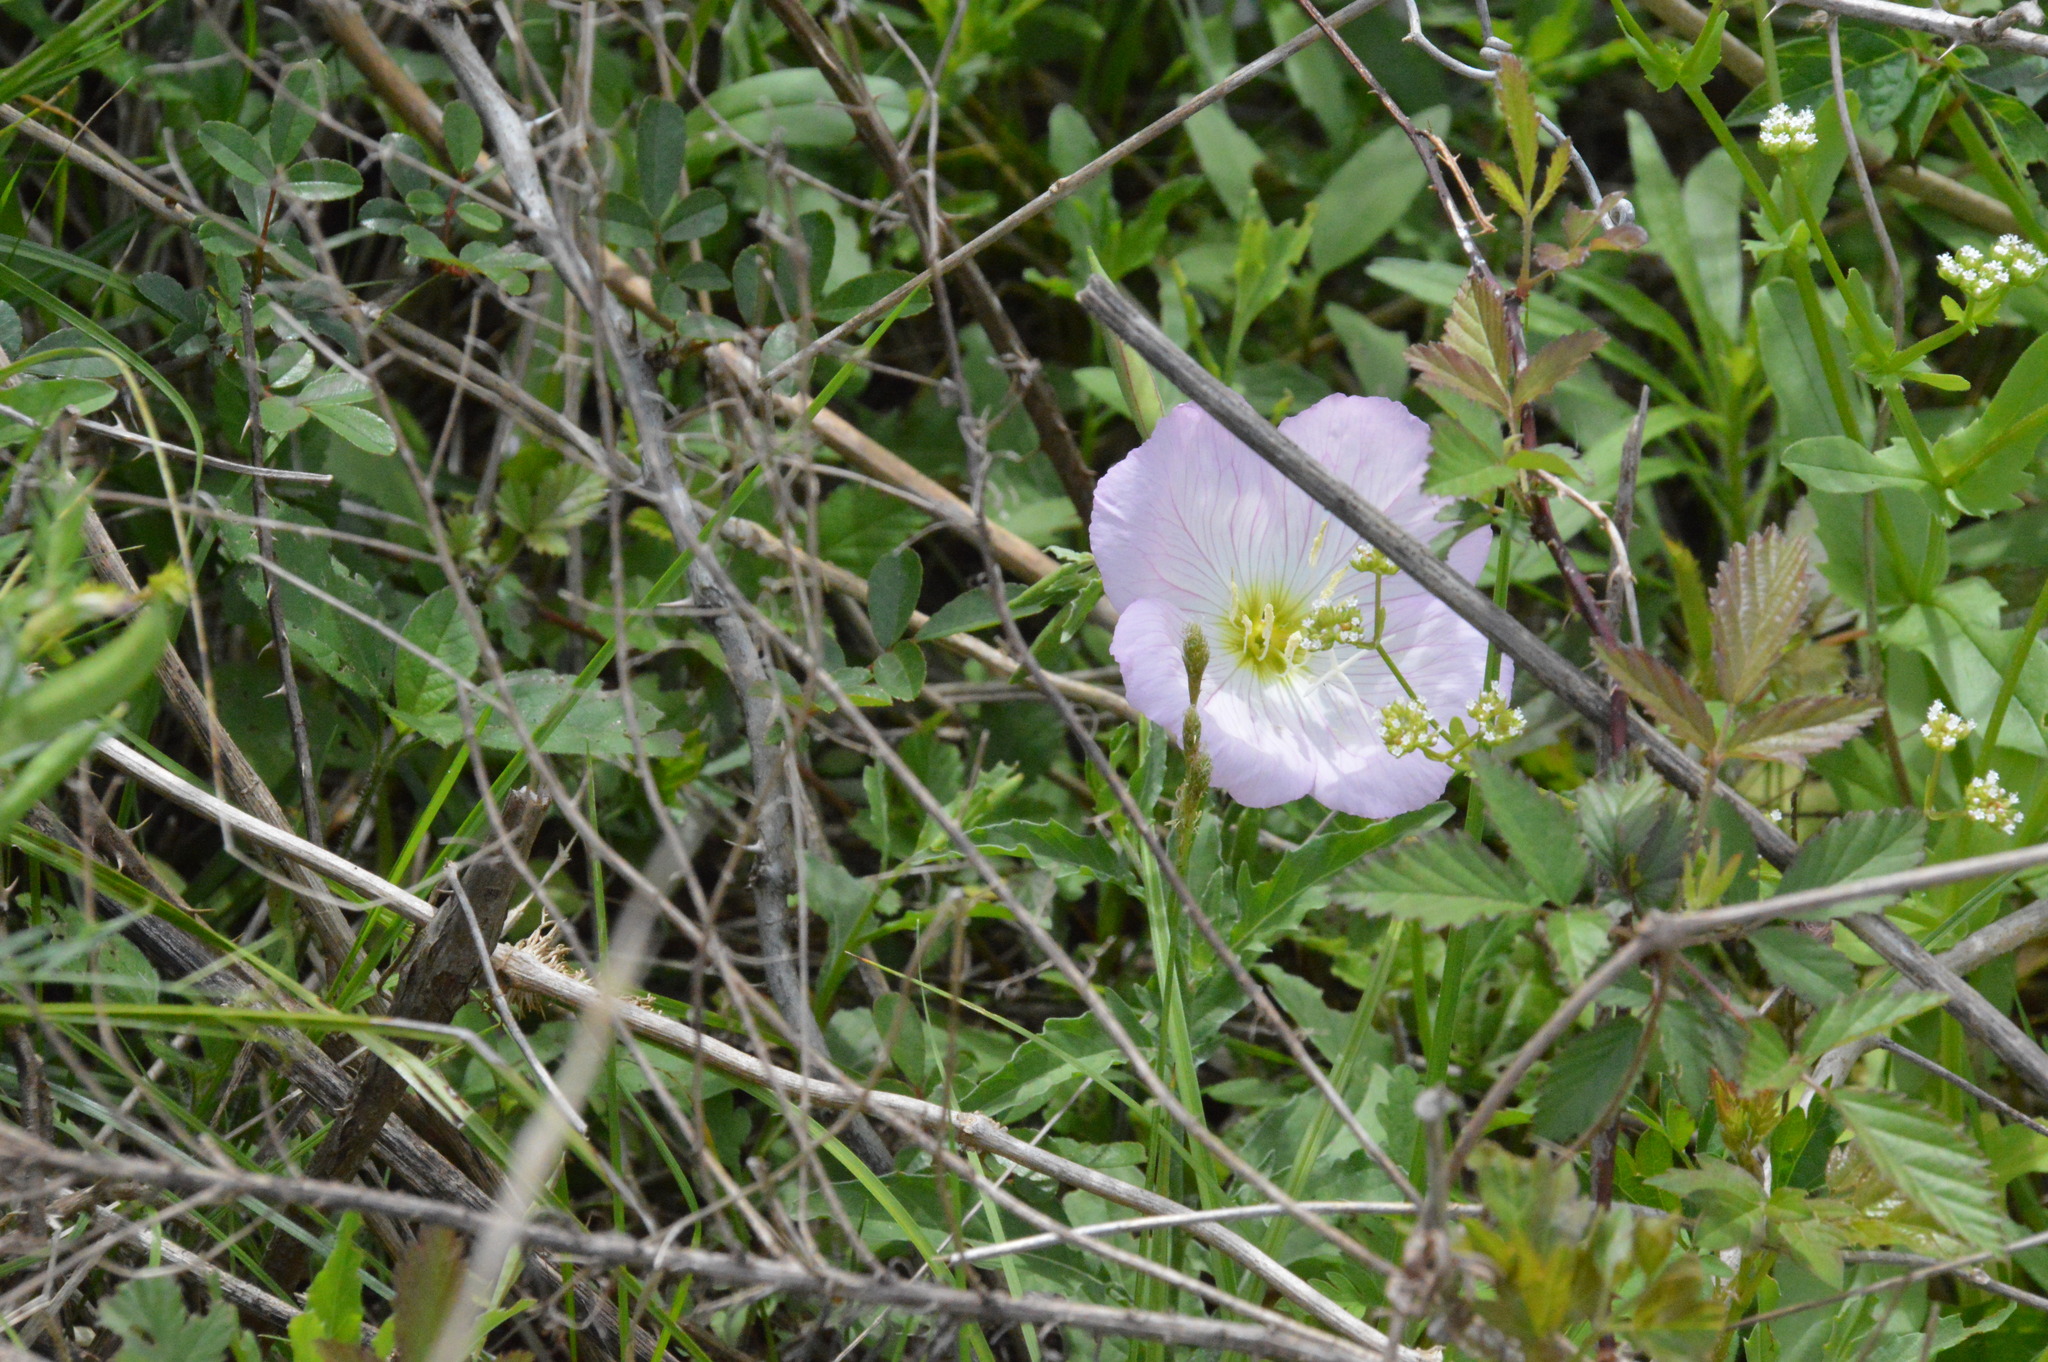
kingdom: Plantae
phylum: Tracheophyta
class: Magnoliopsida
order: Myrtales
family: Onagraceae
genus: Oenothera
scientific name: Oenothera speciosa
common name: White evening-primrose
